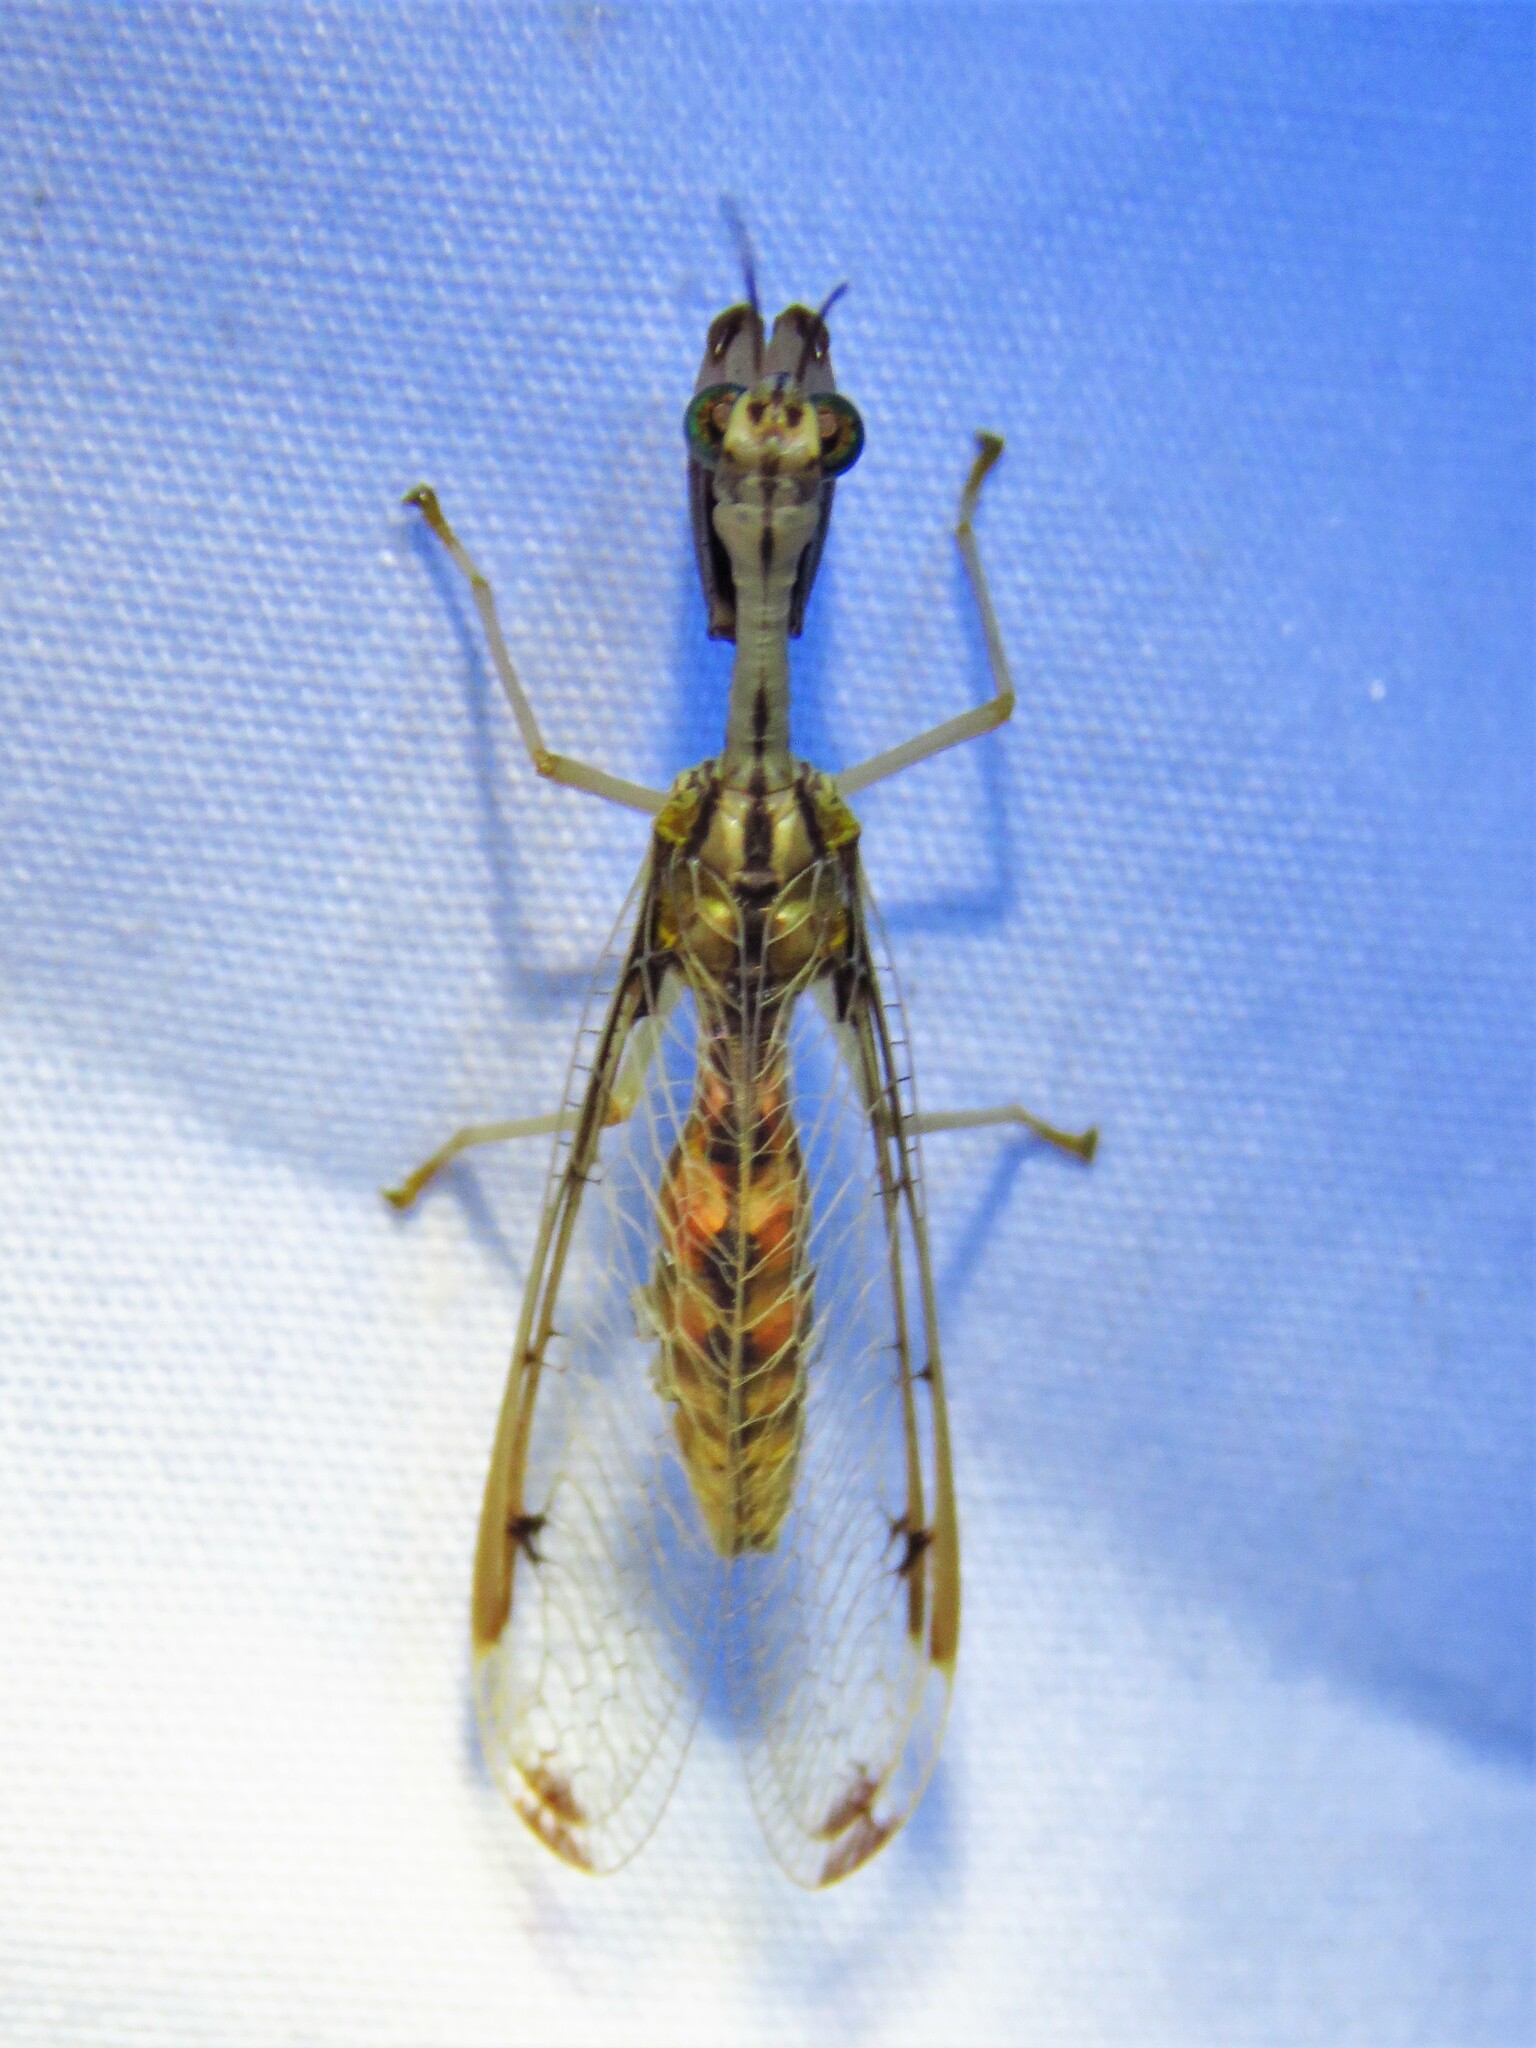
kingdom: Animalia
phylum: Arthropoda
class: Insecta
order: Neuroptera
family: Mantispidae
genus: Dicromantispa
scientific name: Dicromantispa interrupta
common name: Four-spotted mantidfly
